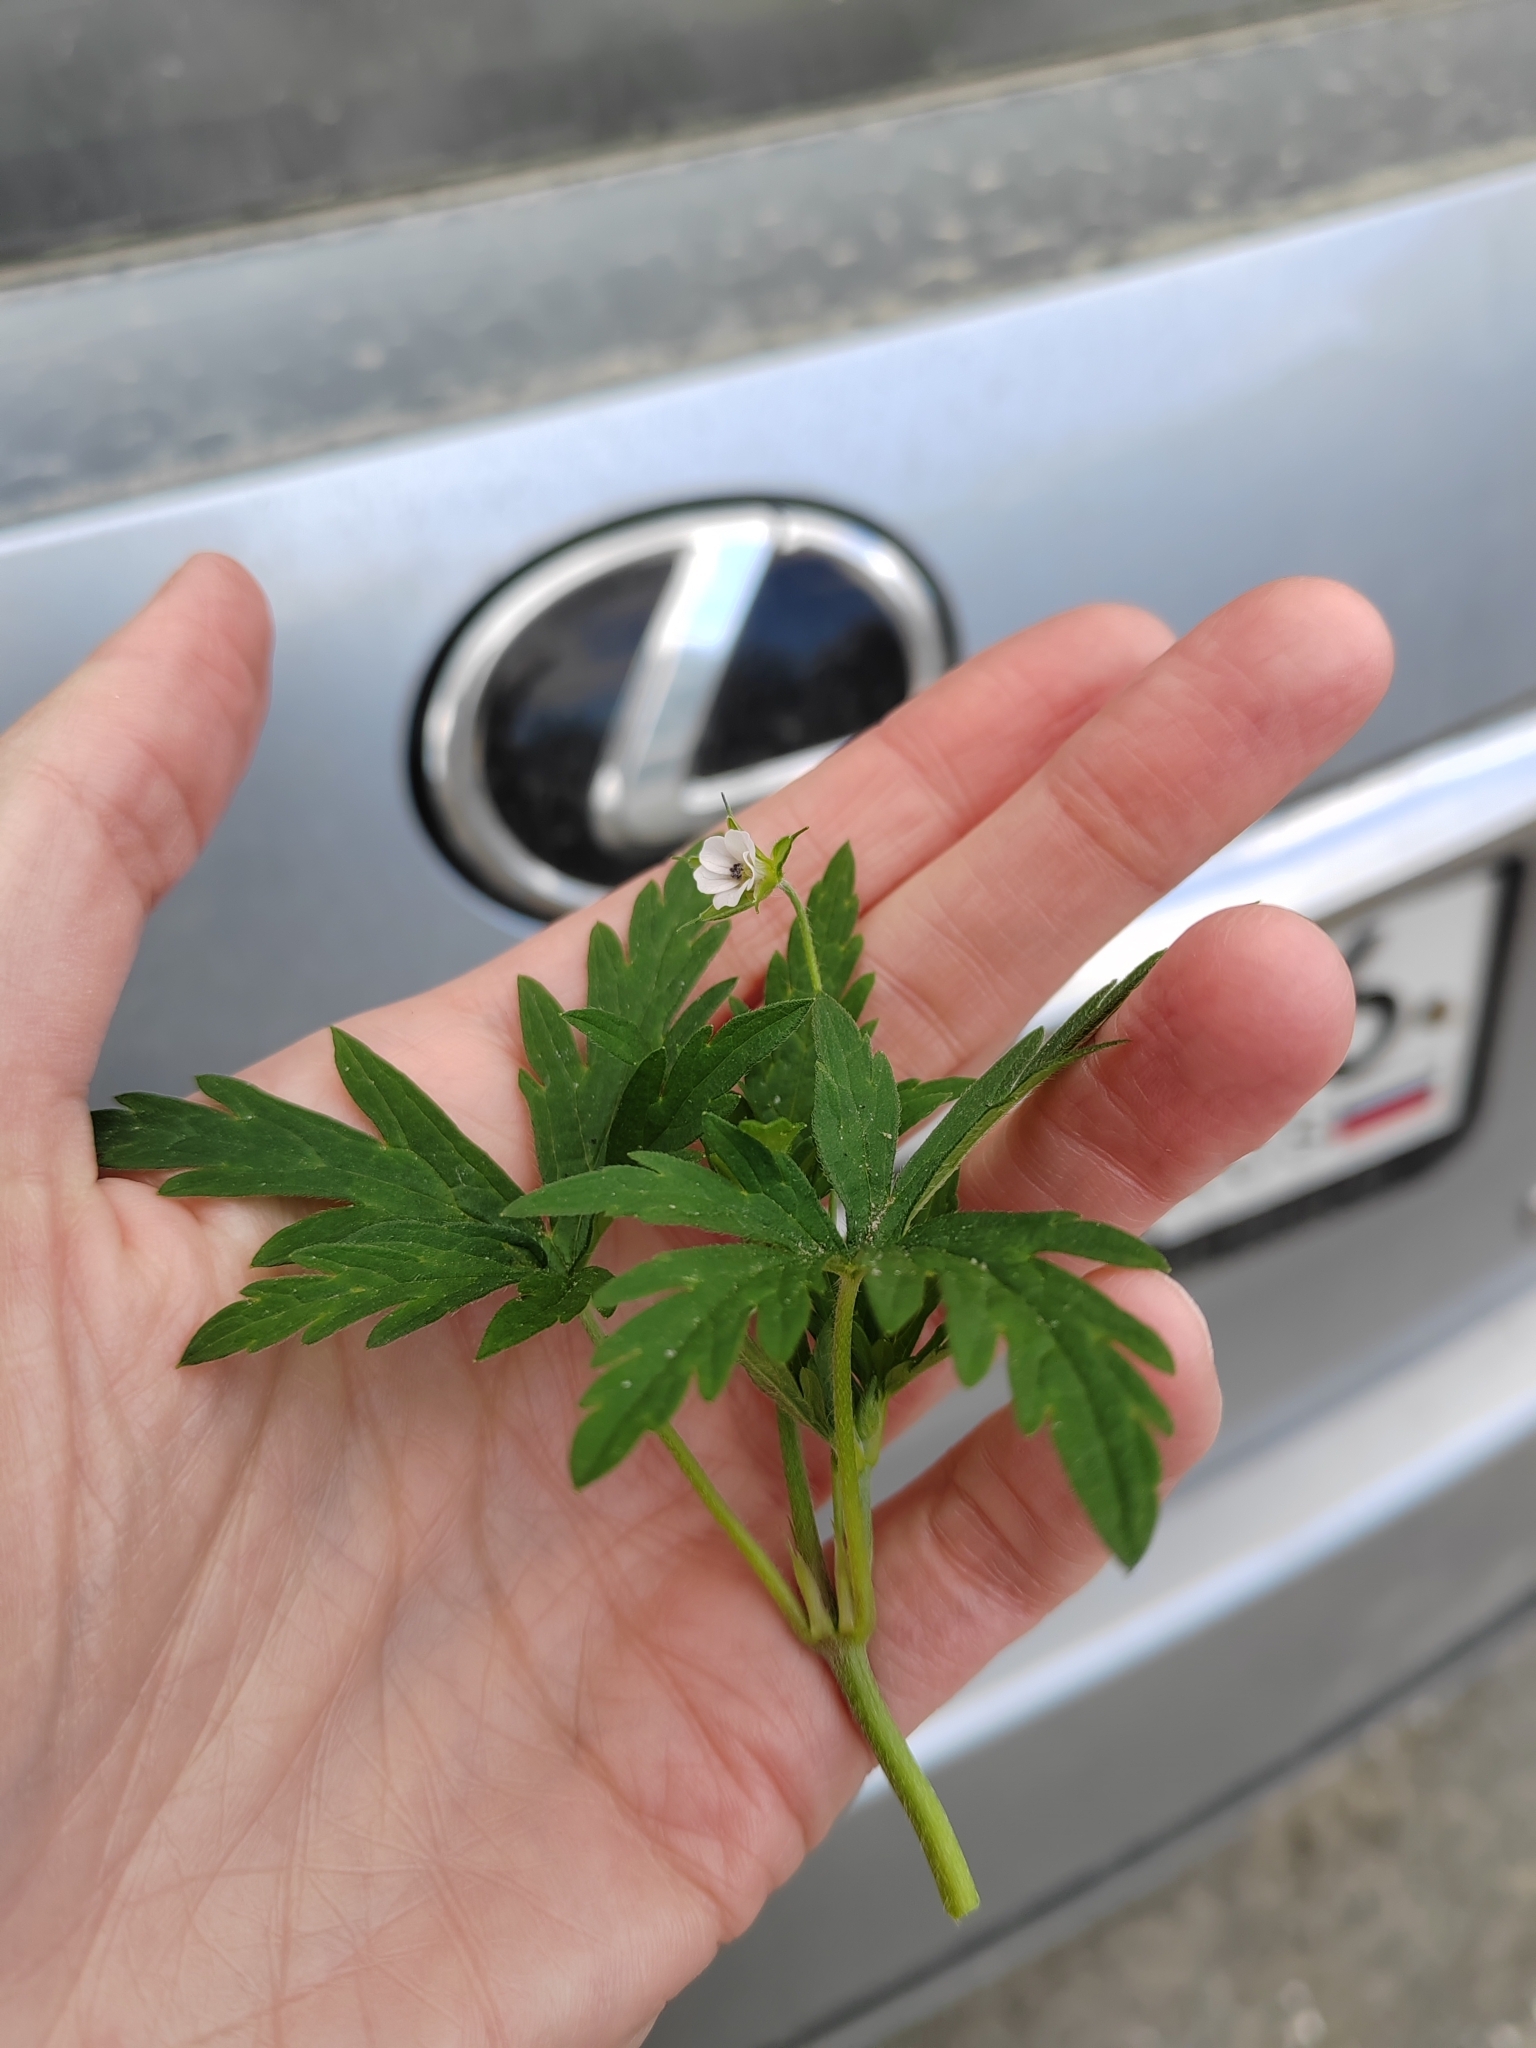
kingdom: Plantae
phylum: Tracheophyta
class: Magnoliopsida
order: Geraniales
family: Geraniaceae
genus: Geranium
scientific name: Geranium sibiricum
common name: Siberian crane's-bill
